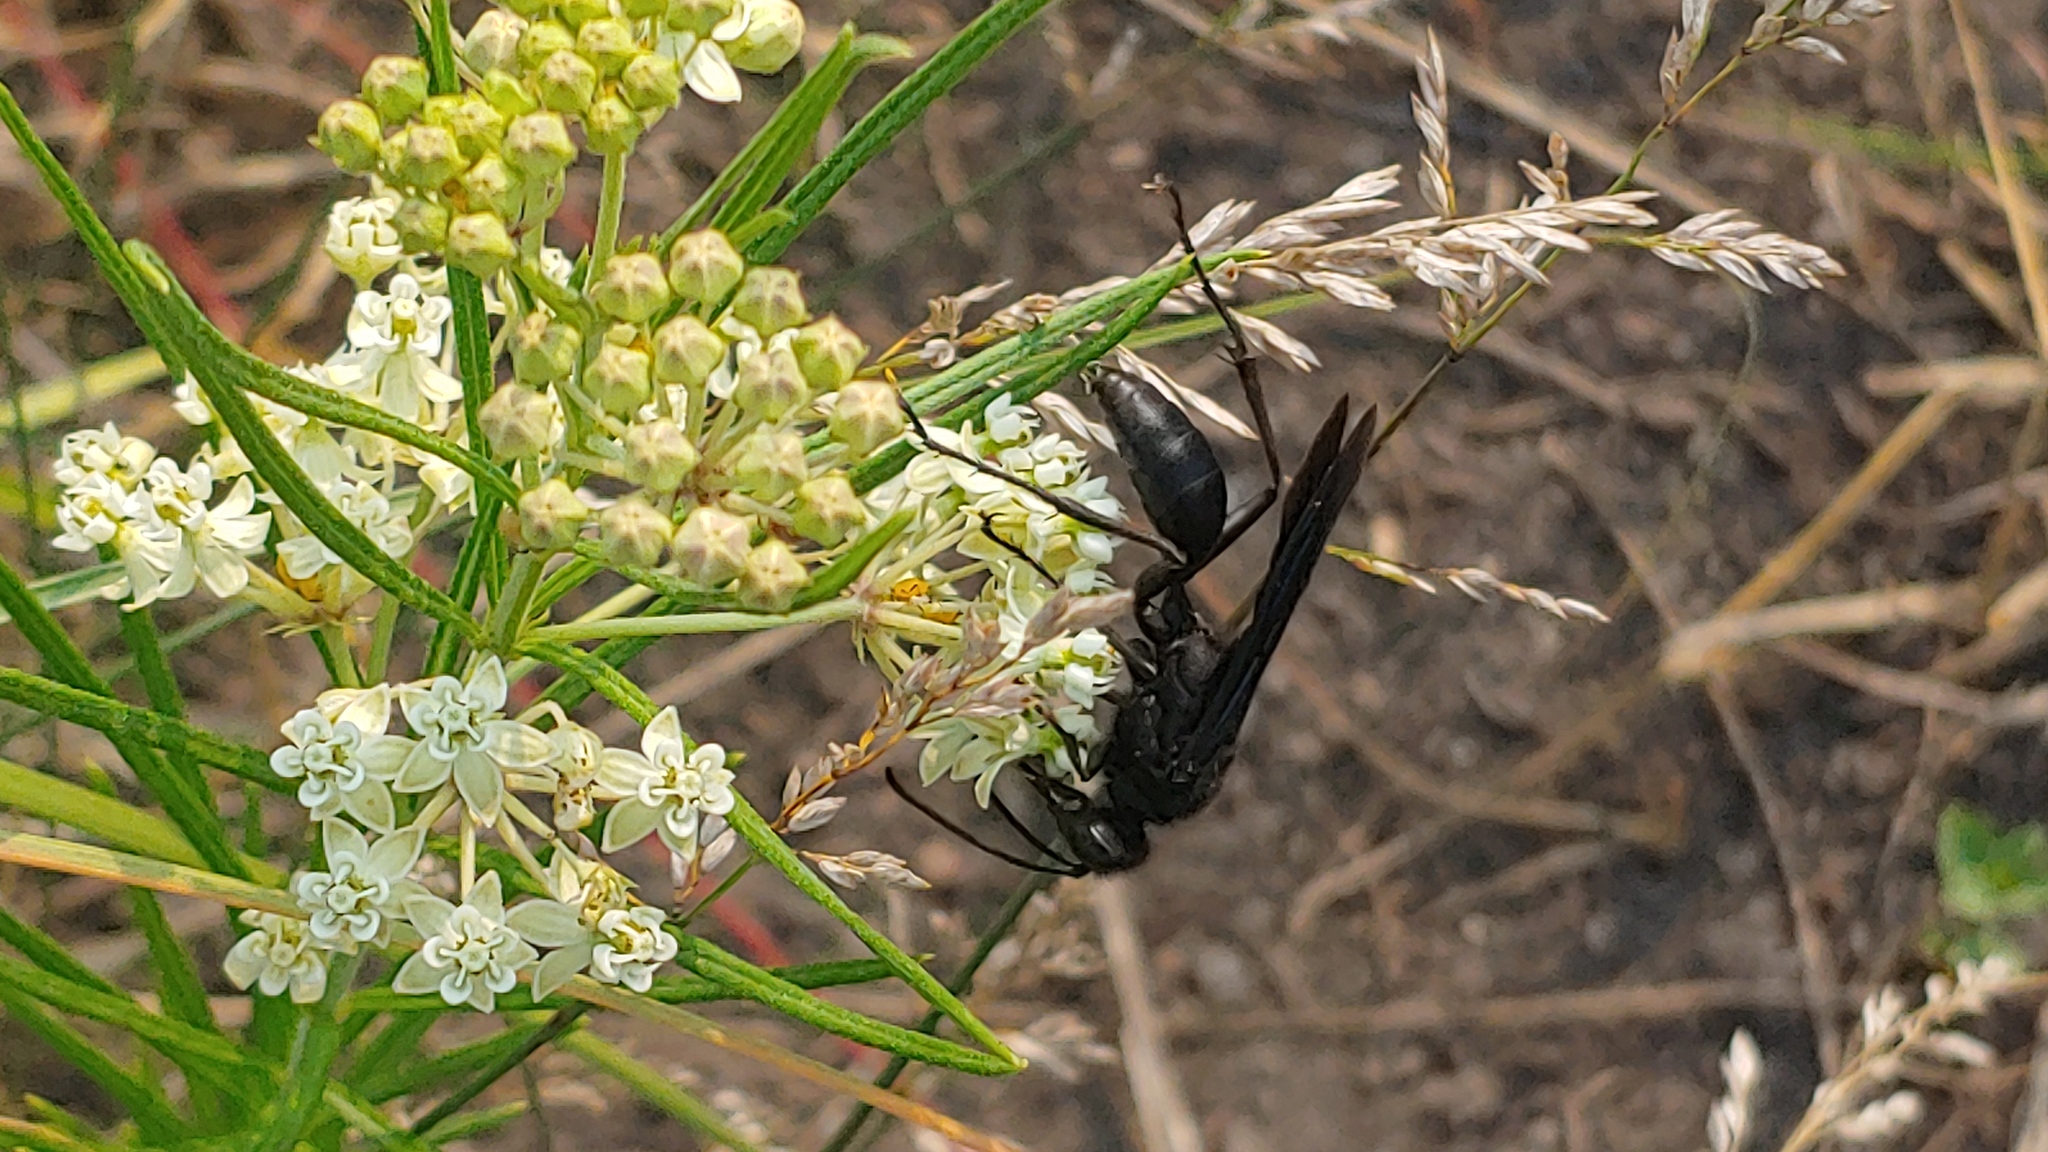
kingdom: Animalia
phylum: Arthropoda
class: Insecta
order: Hymenoptera
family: Sphecidae
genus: Sphex
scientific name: Sphex pensylvanicus
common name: Great black digger wasp
